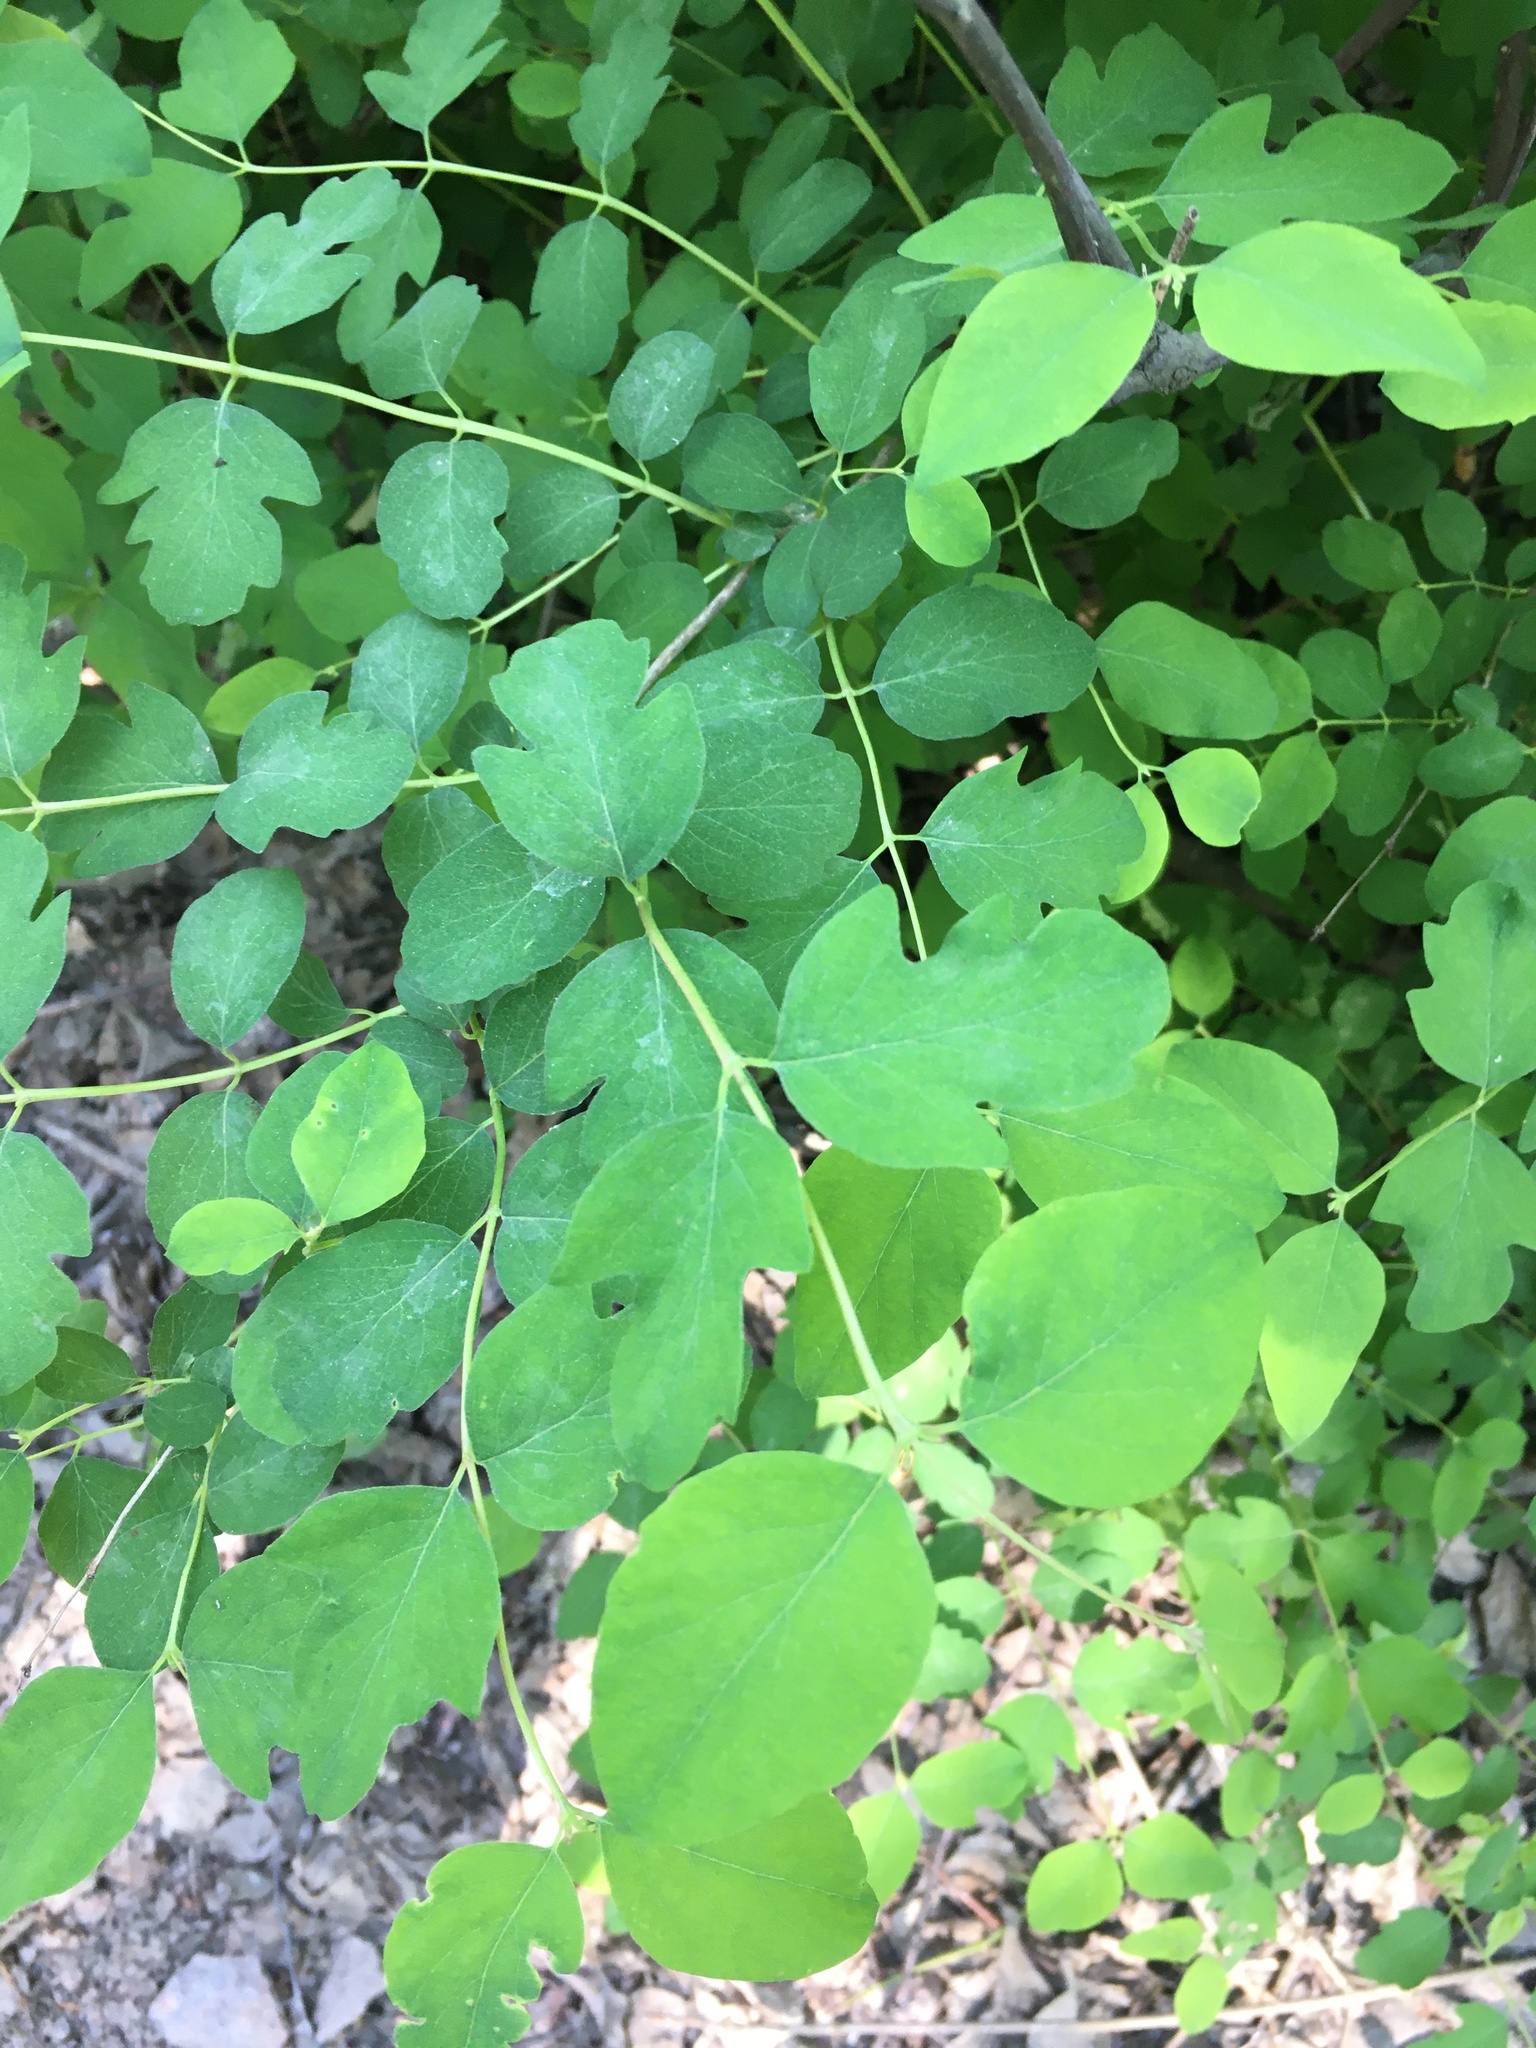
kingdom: Plantae
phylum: Tracheophyta
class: Magnoliopsida
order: Dipsacales
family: Caprifoliaceae
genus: Symphoricarpos
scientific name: Symphoricarpos albus
